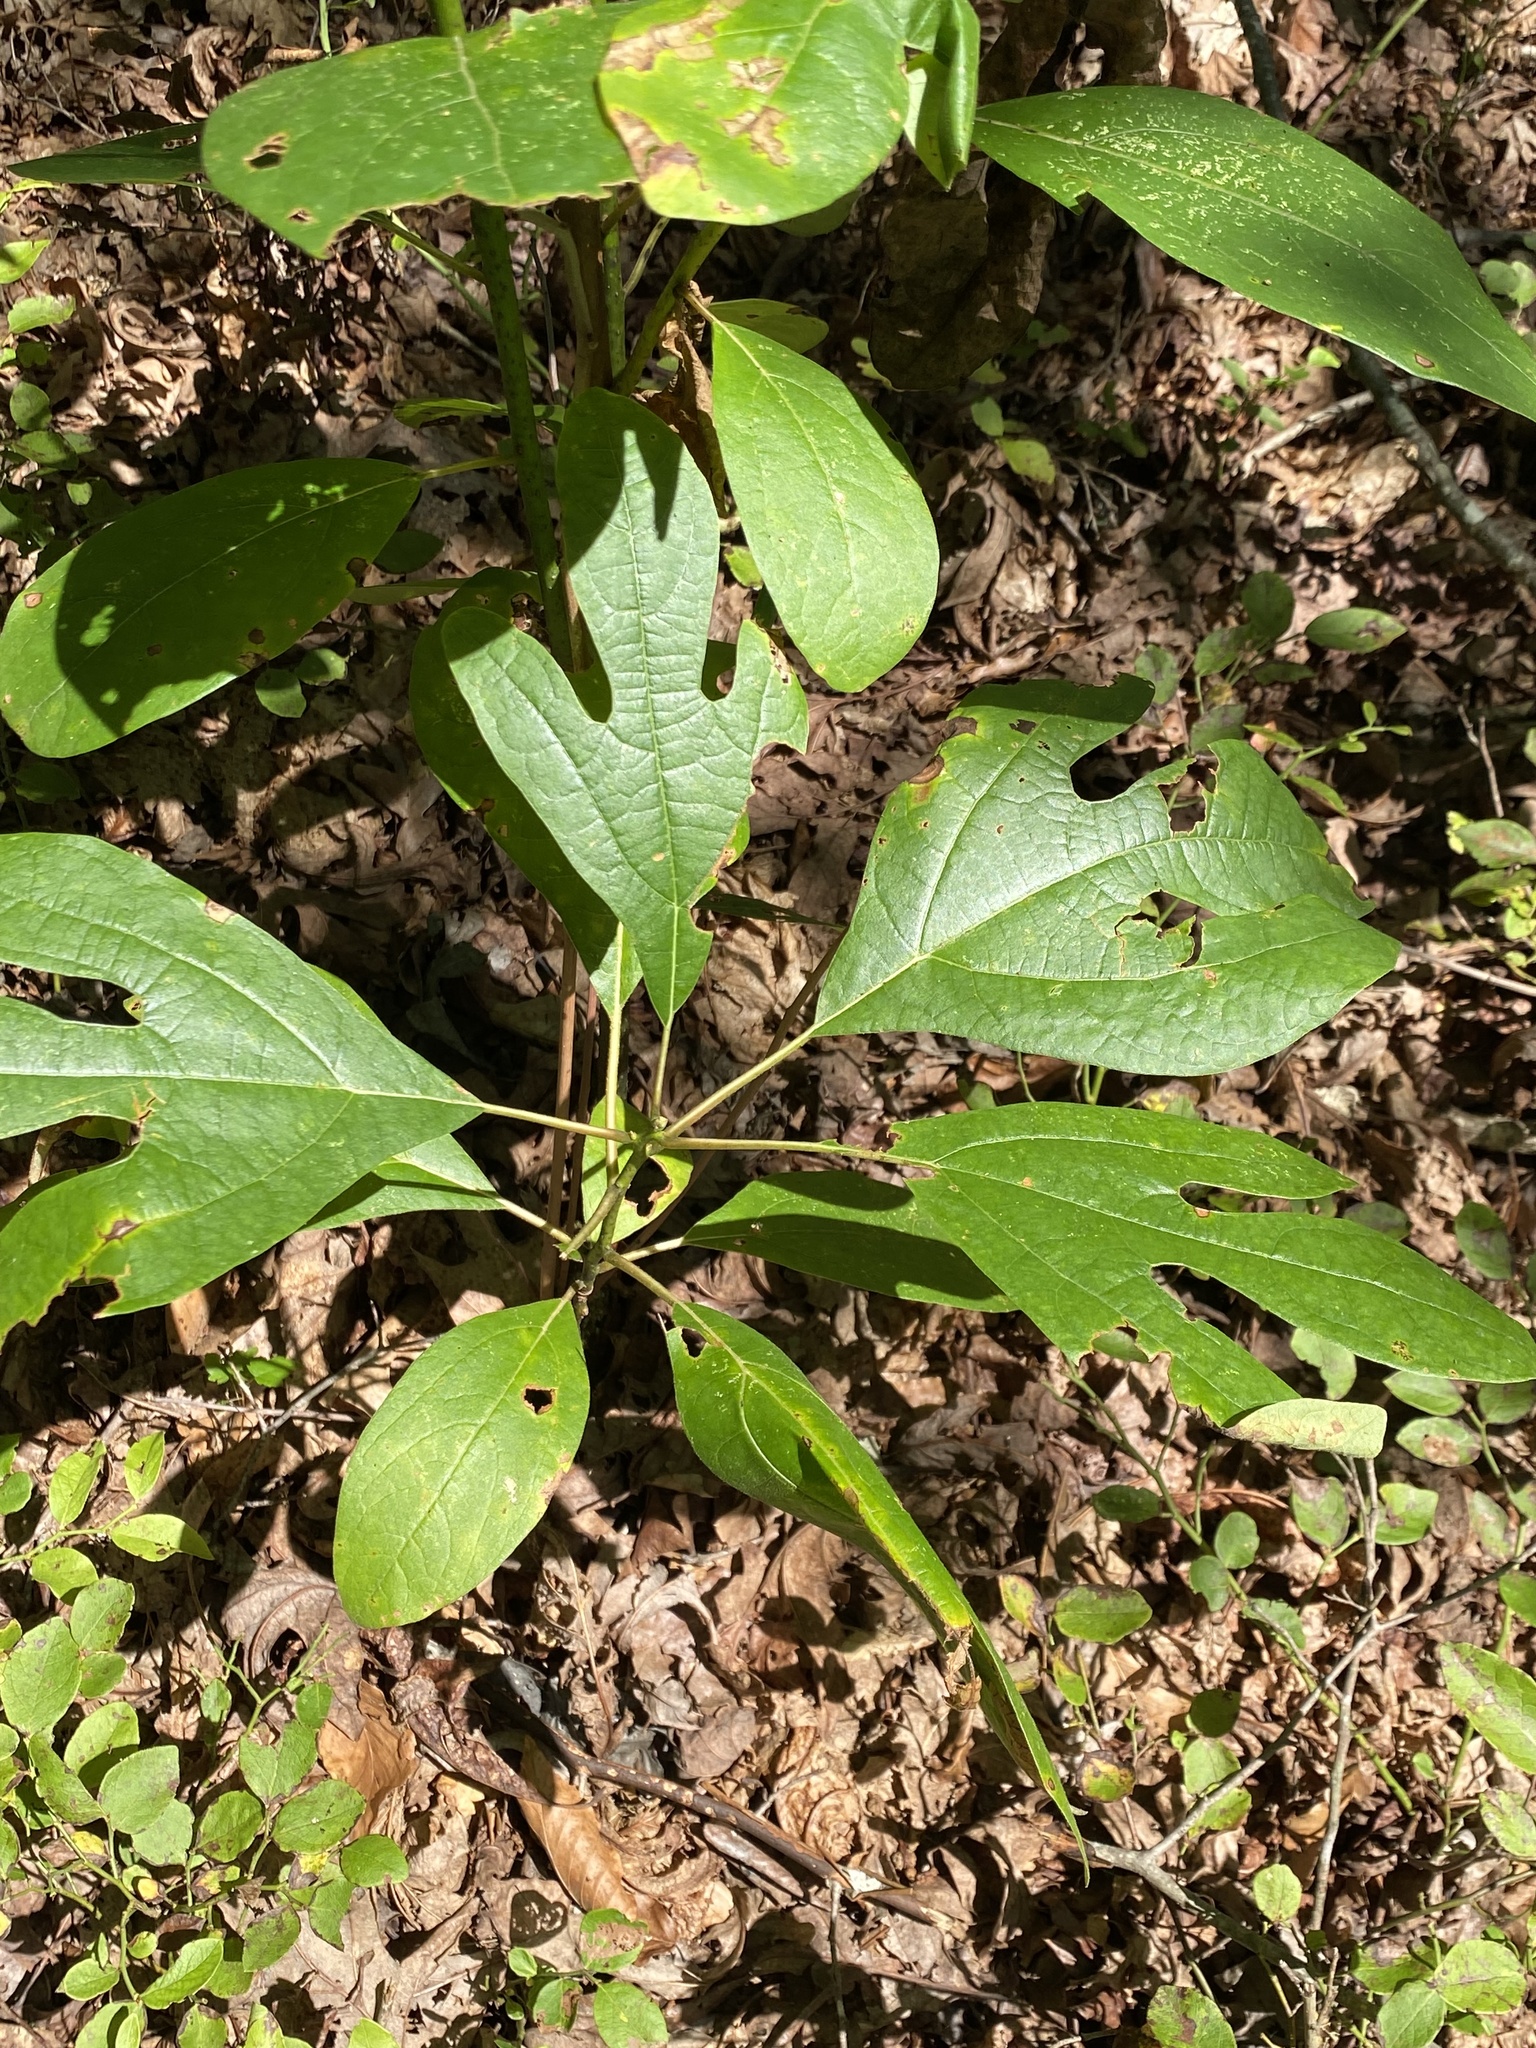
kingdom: Plantae
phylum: Tracheophyta
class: Magnoliopsida
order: Laurales
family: Lauraceae
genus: Sassafras
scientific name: Sassafras albidum
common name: Sassafras
